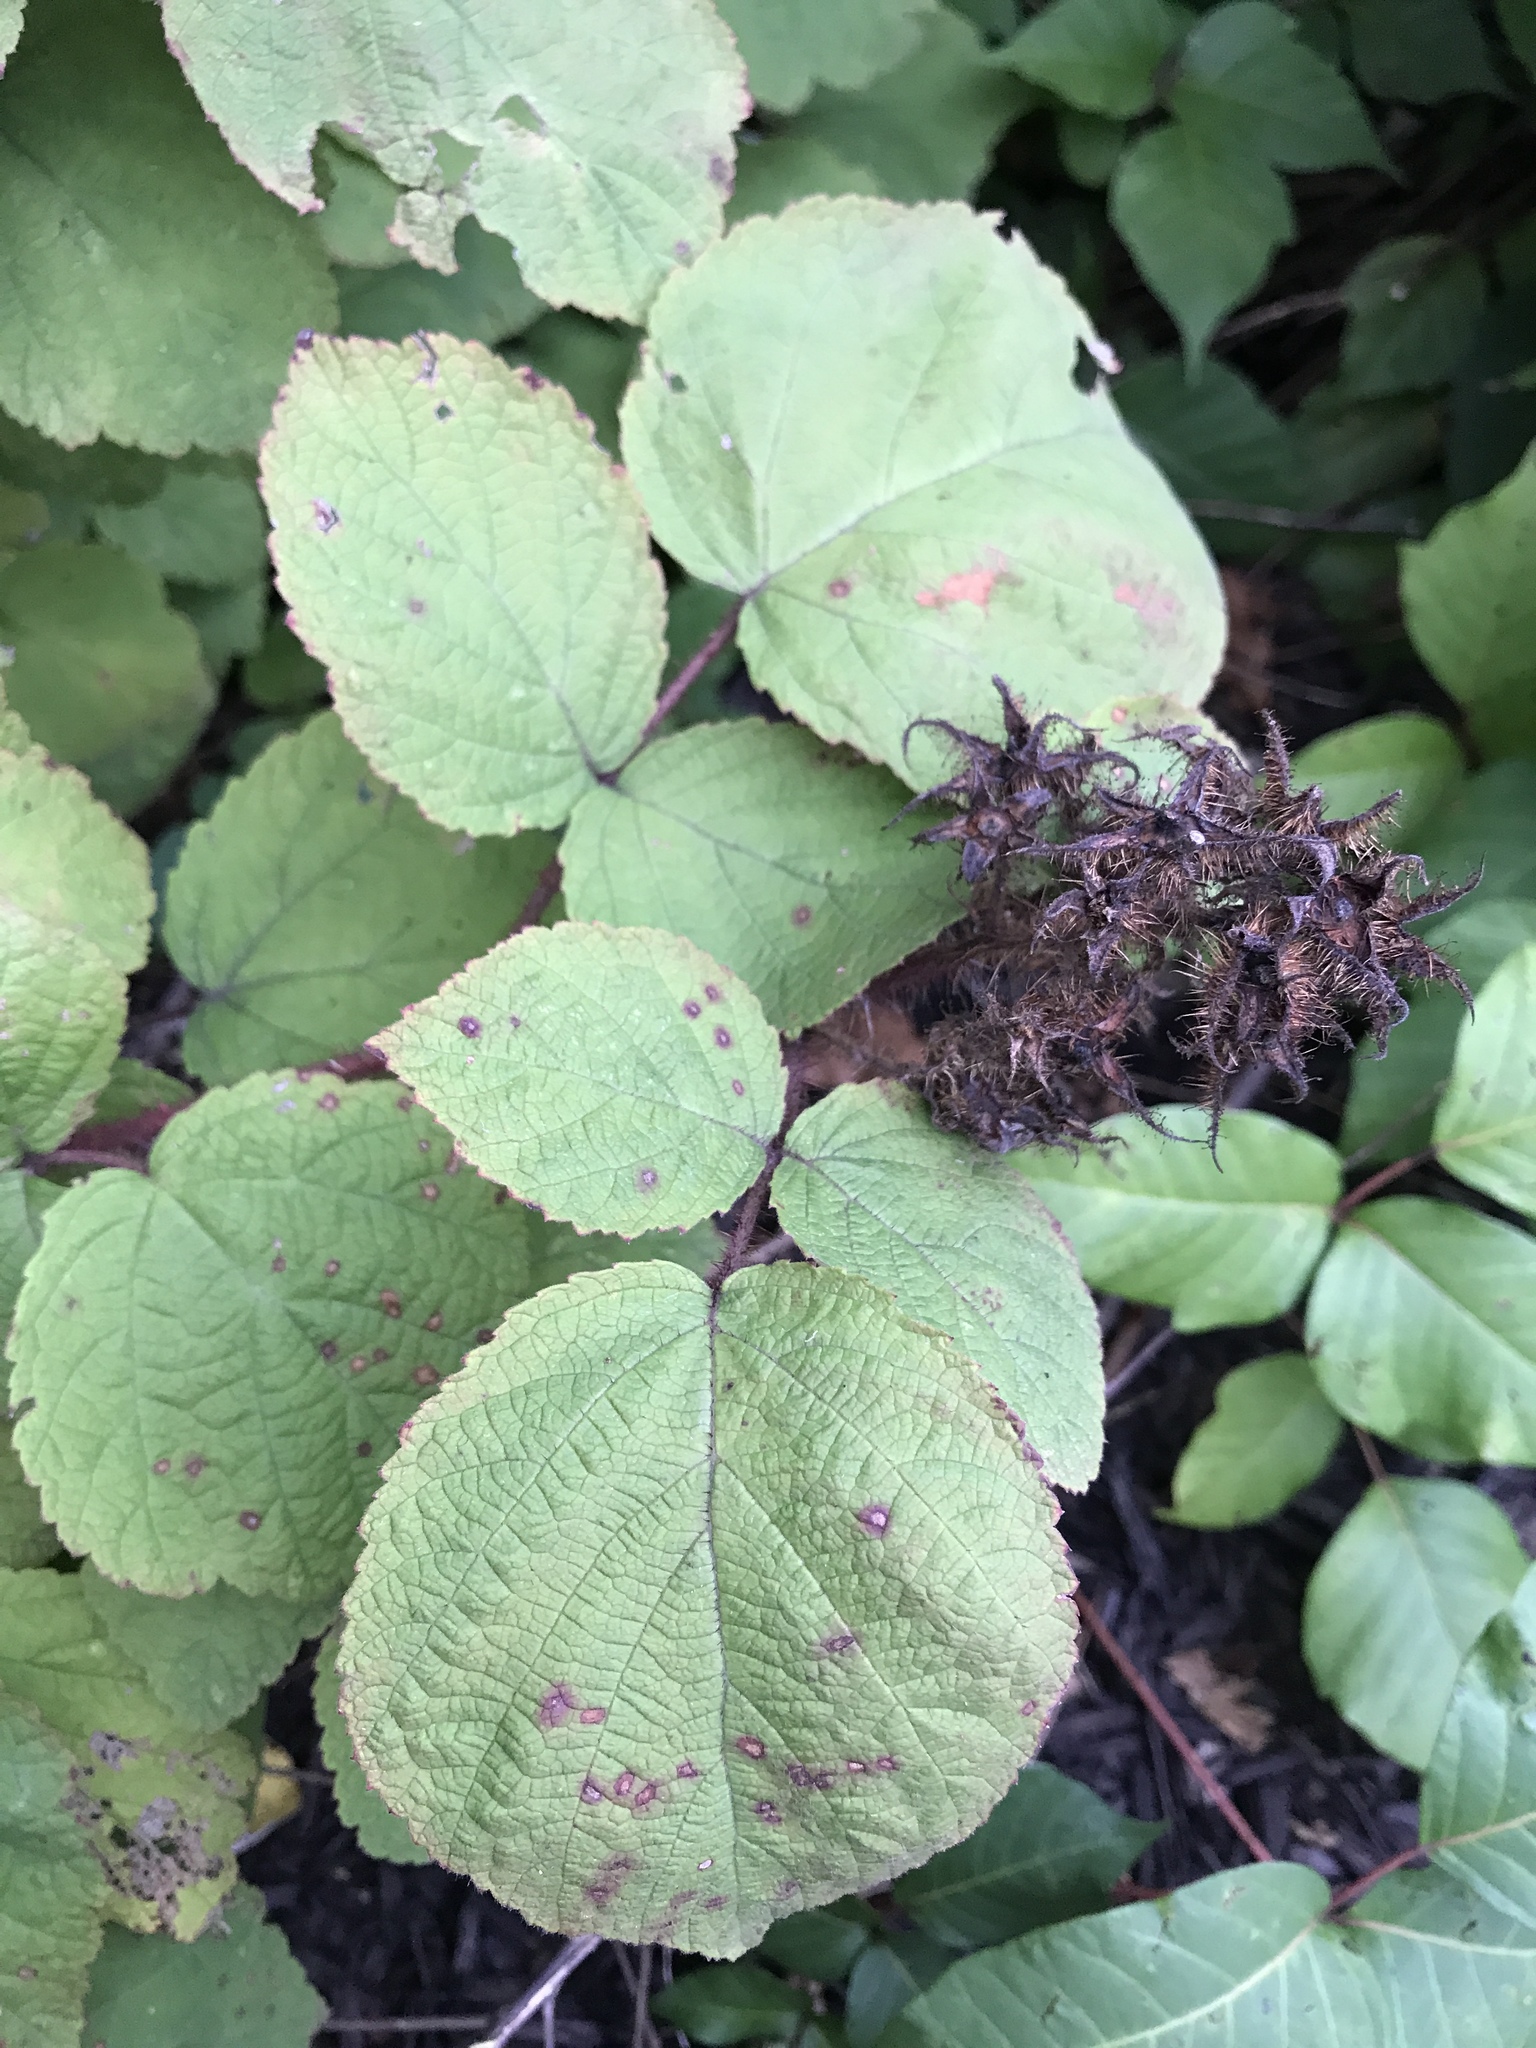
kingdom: Plantae
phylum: Tracheophyta
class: Magnoliopsida
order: Rosales
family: Rosaceae
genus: Rubus
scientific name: Rubus phoenicolasius
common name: Japanese wineberry
